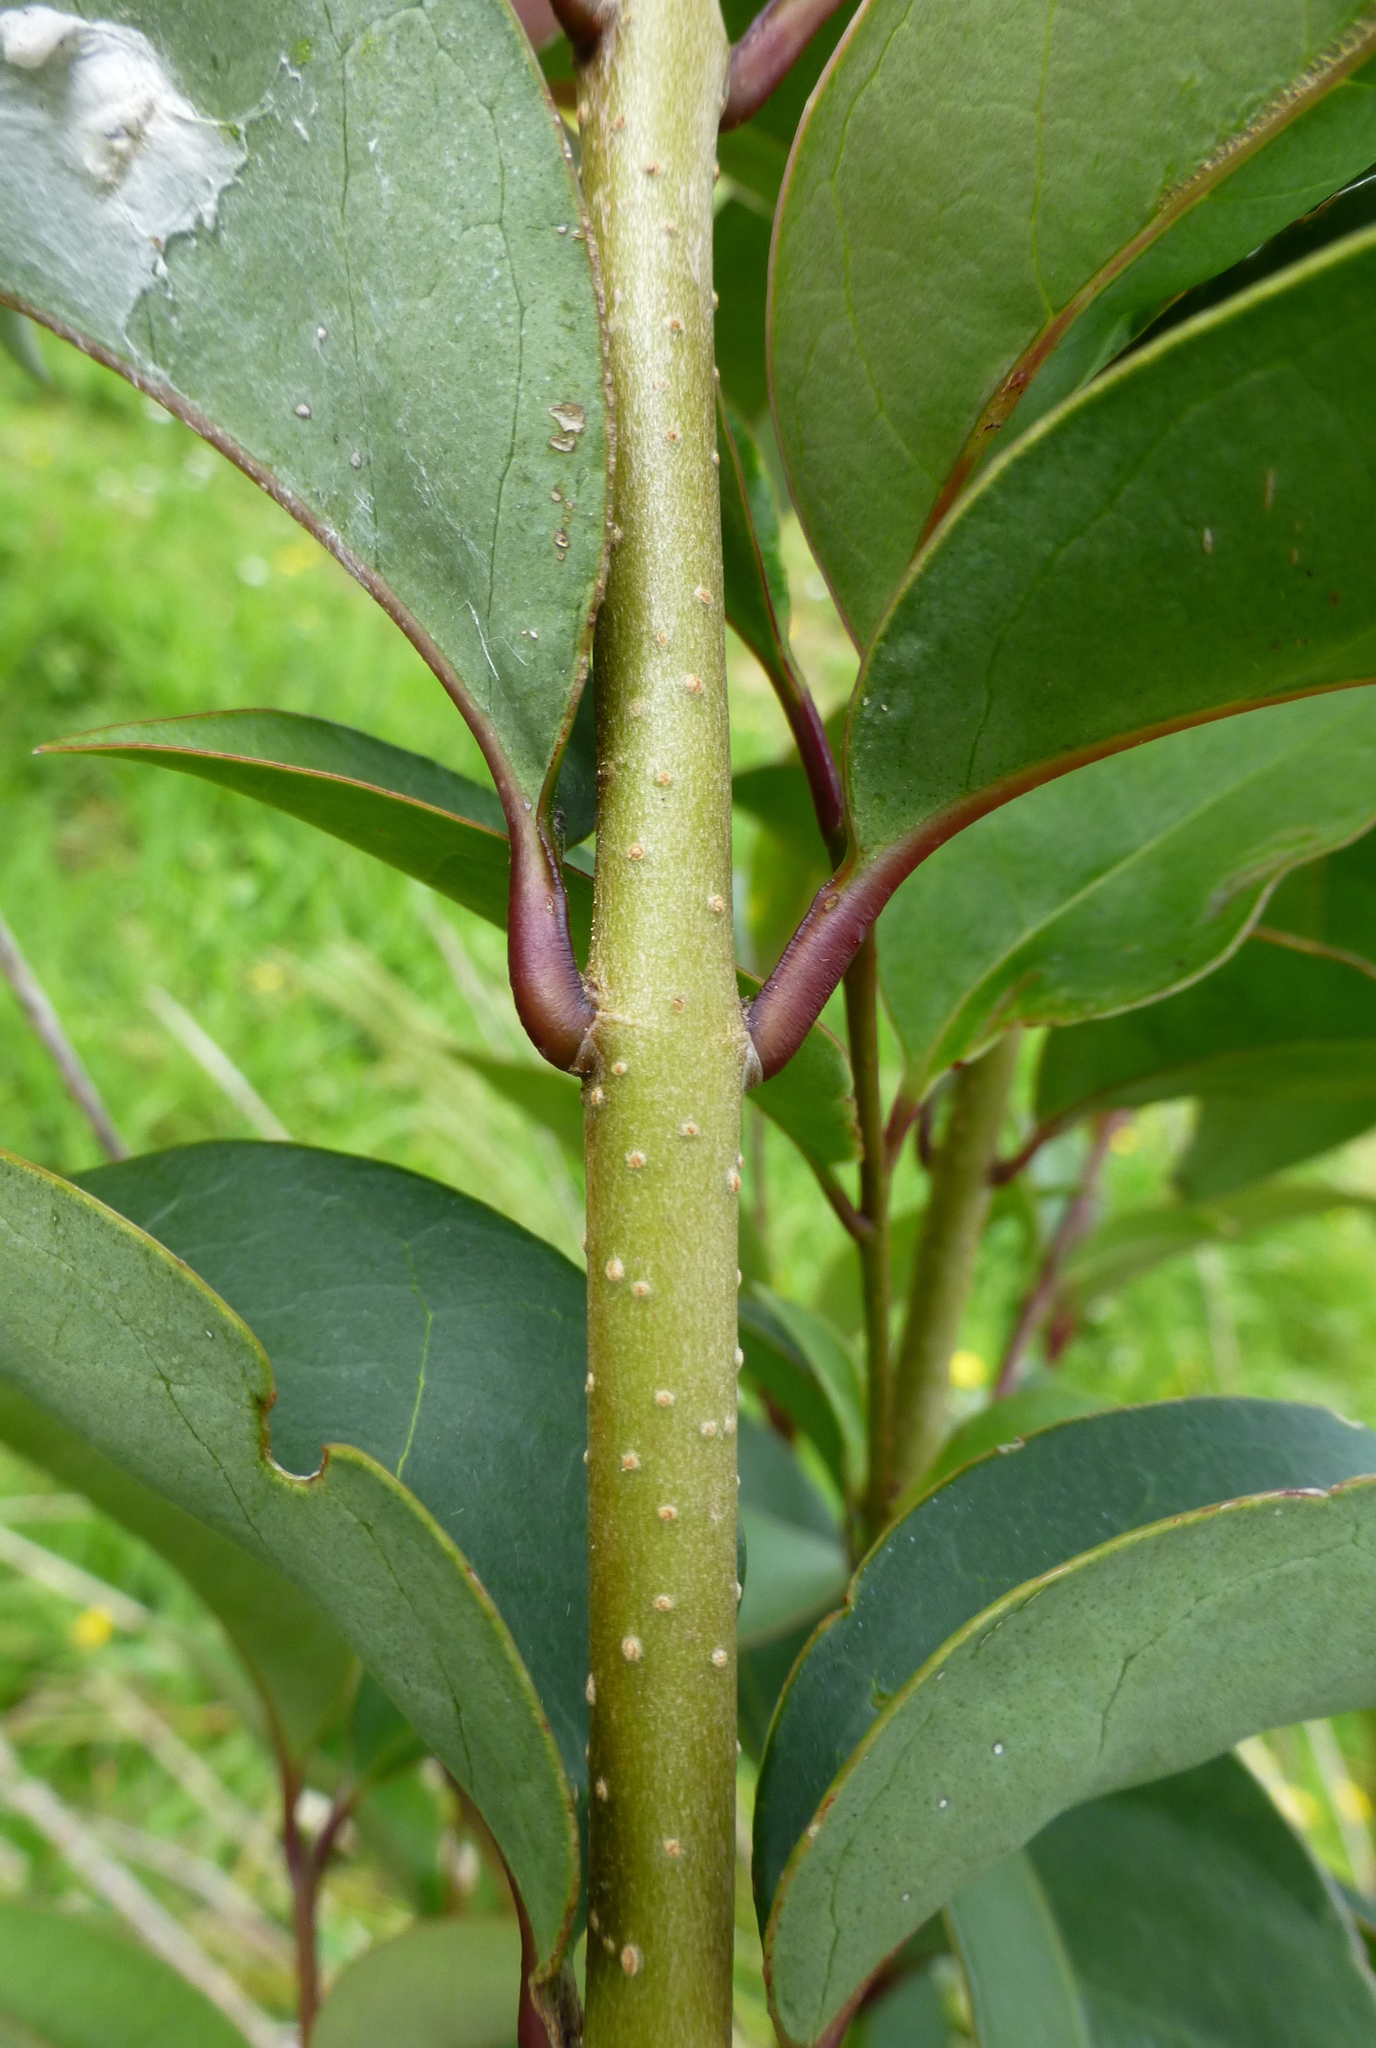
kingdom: Plantae
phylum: Tracheophyta
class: Magnoliopsida
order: Lamiales
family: Oleaceae
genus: Ligustrum
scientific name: Ligustrum lucidum
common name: Glossy privet
